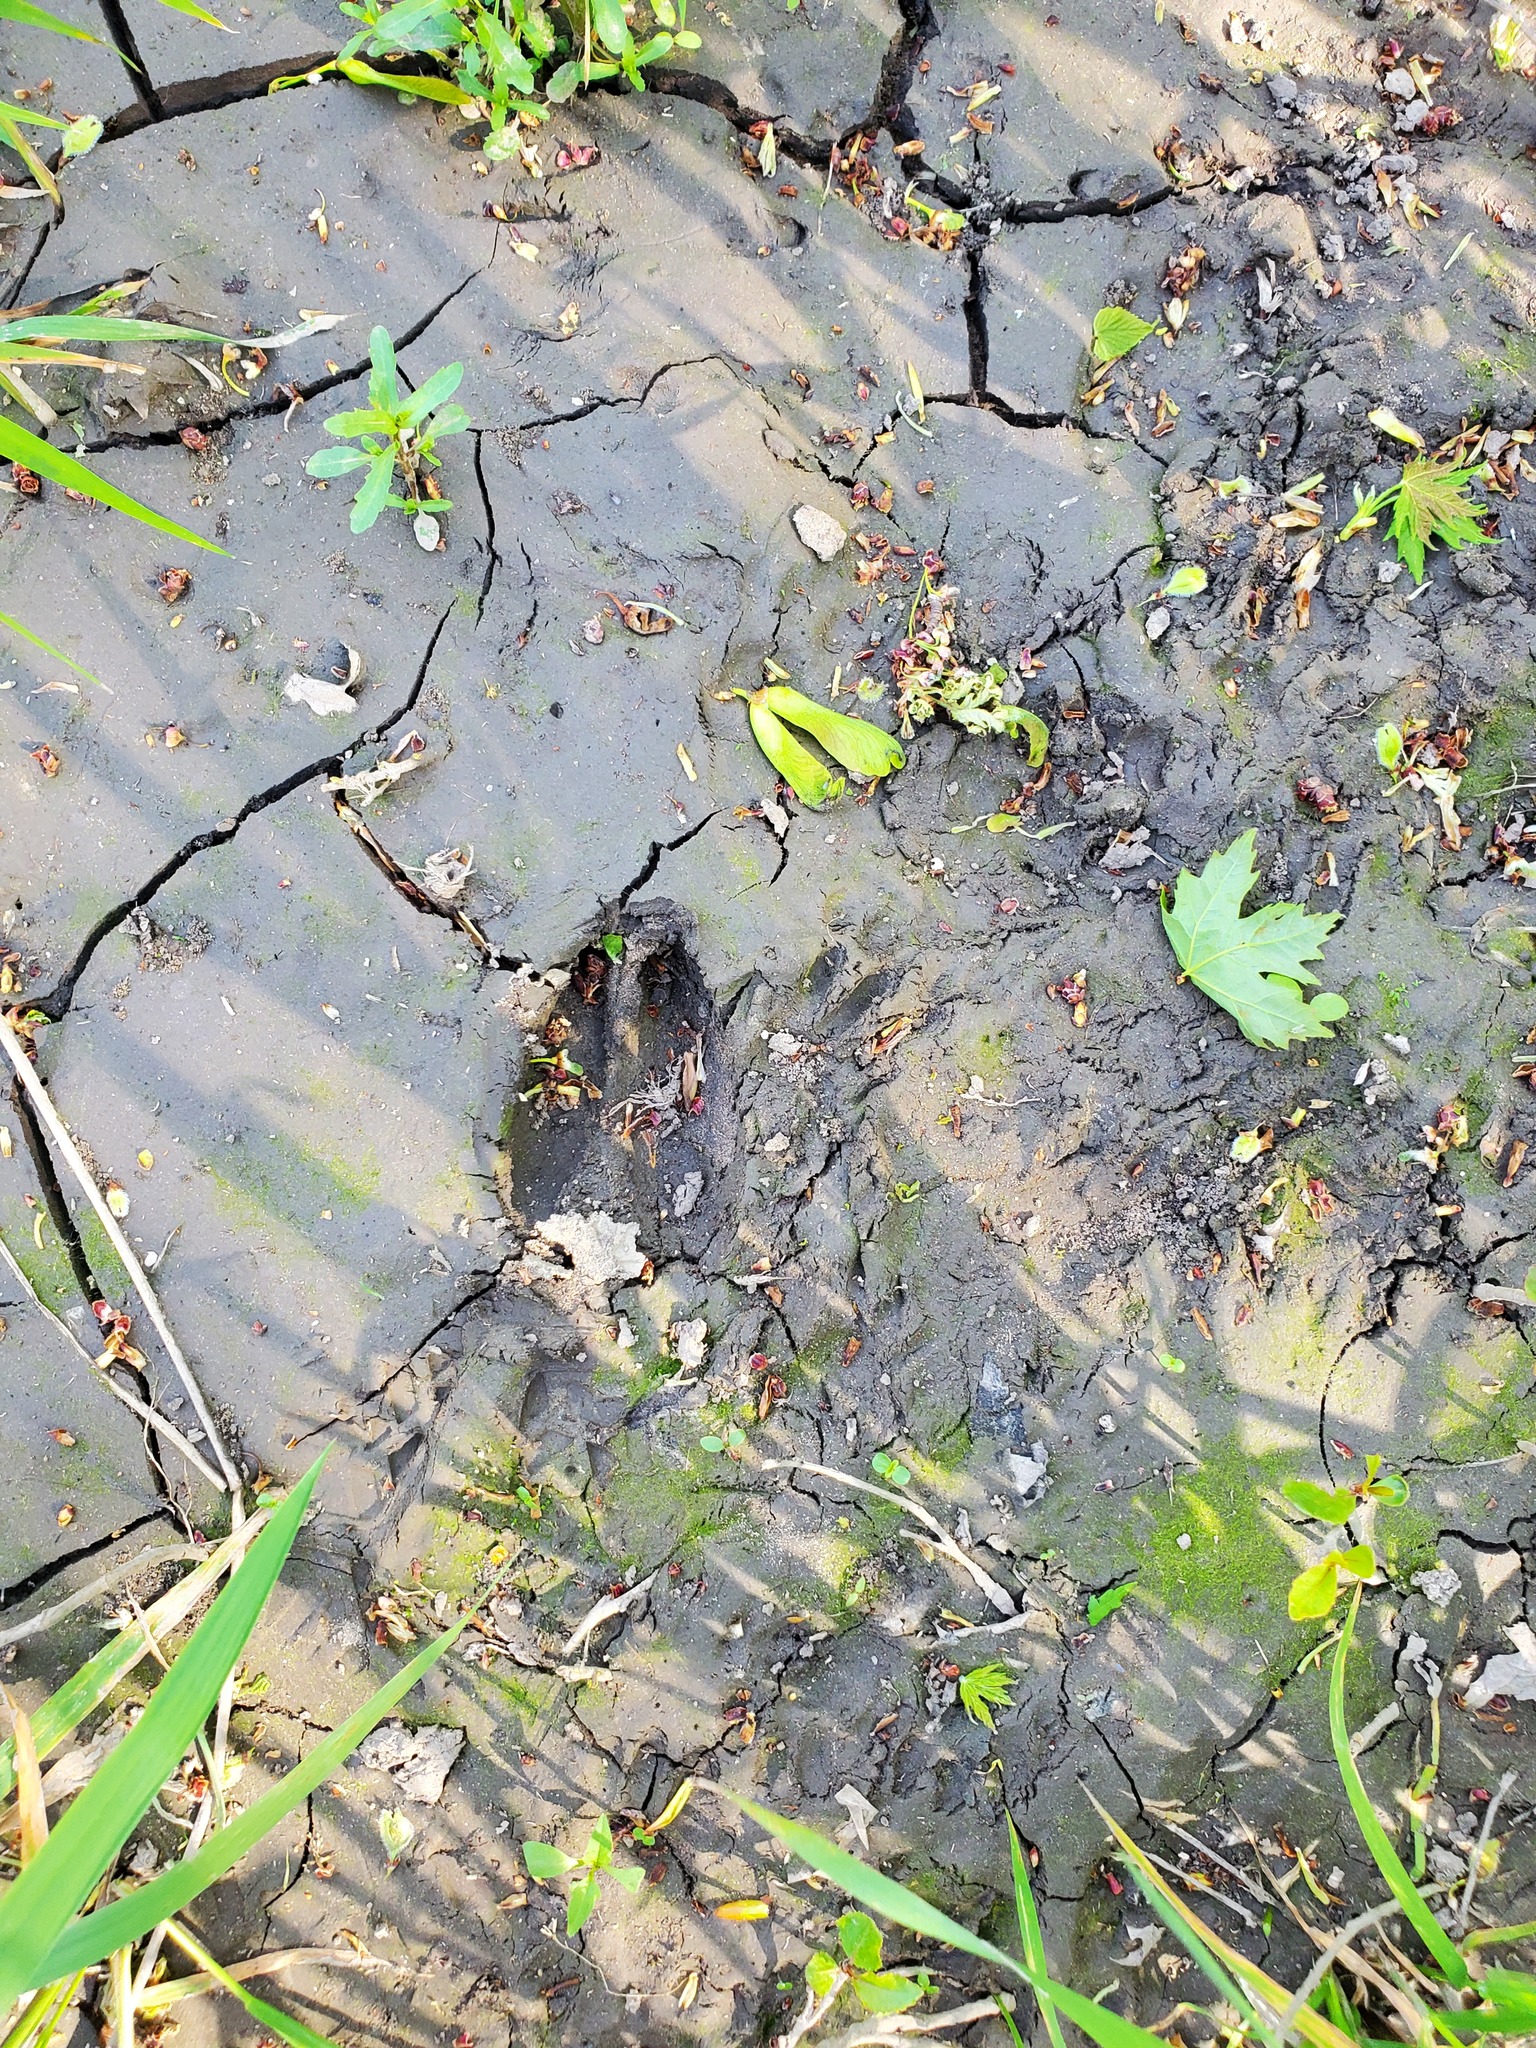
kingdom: Animalia
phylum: Chordata
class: Mammalia
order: Artiodactyla
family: Cervidae
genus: Odocoileus
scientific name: Odocoileus virginianus
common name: White-tailed deer
